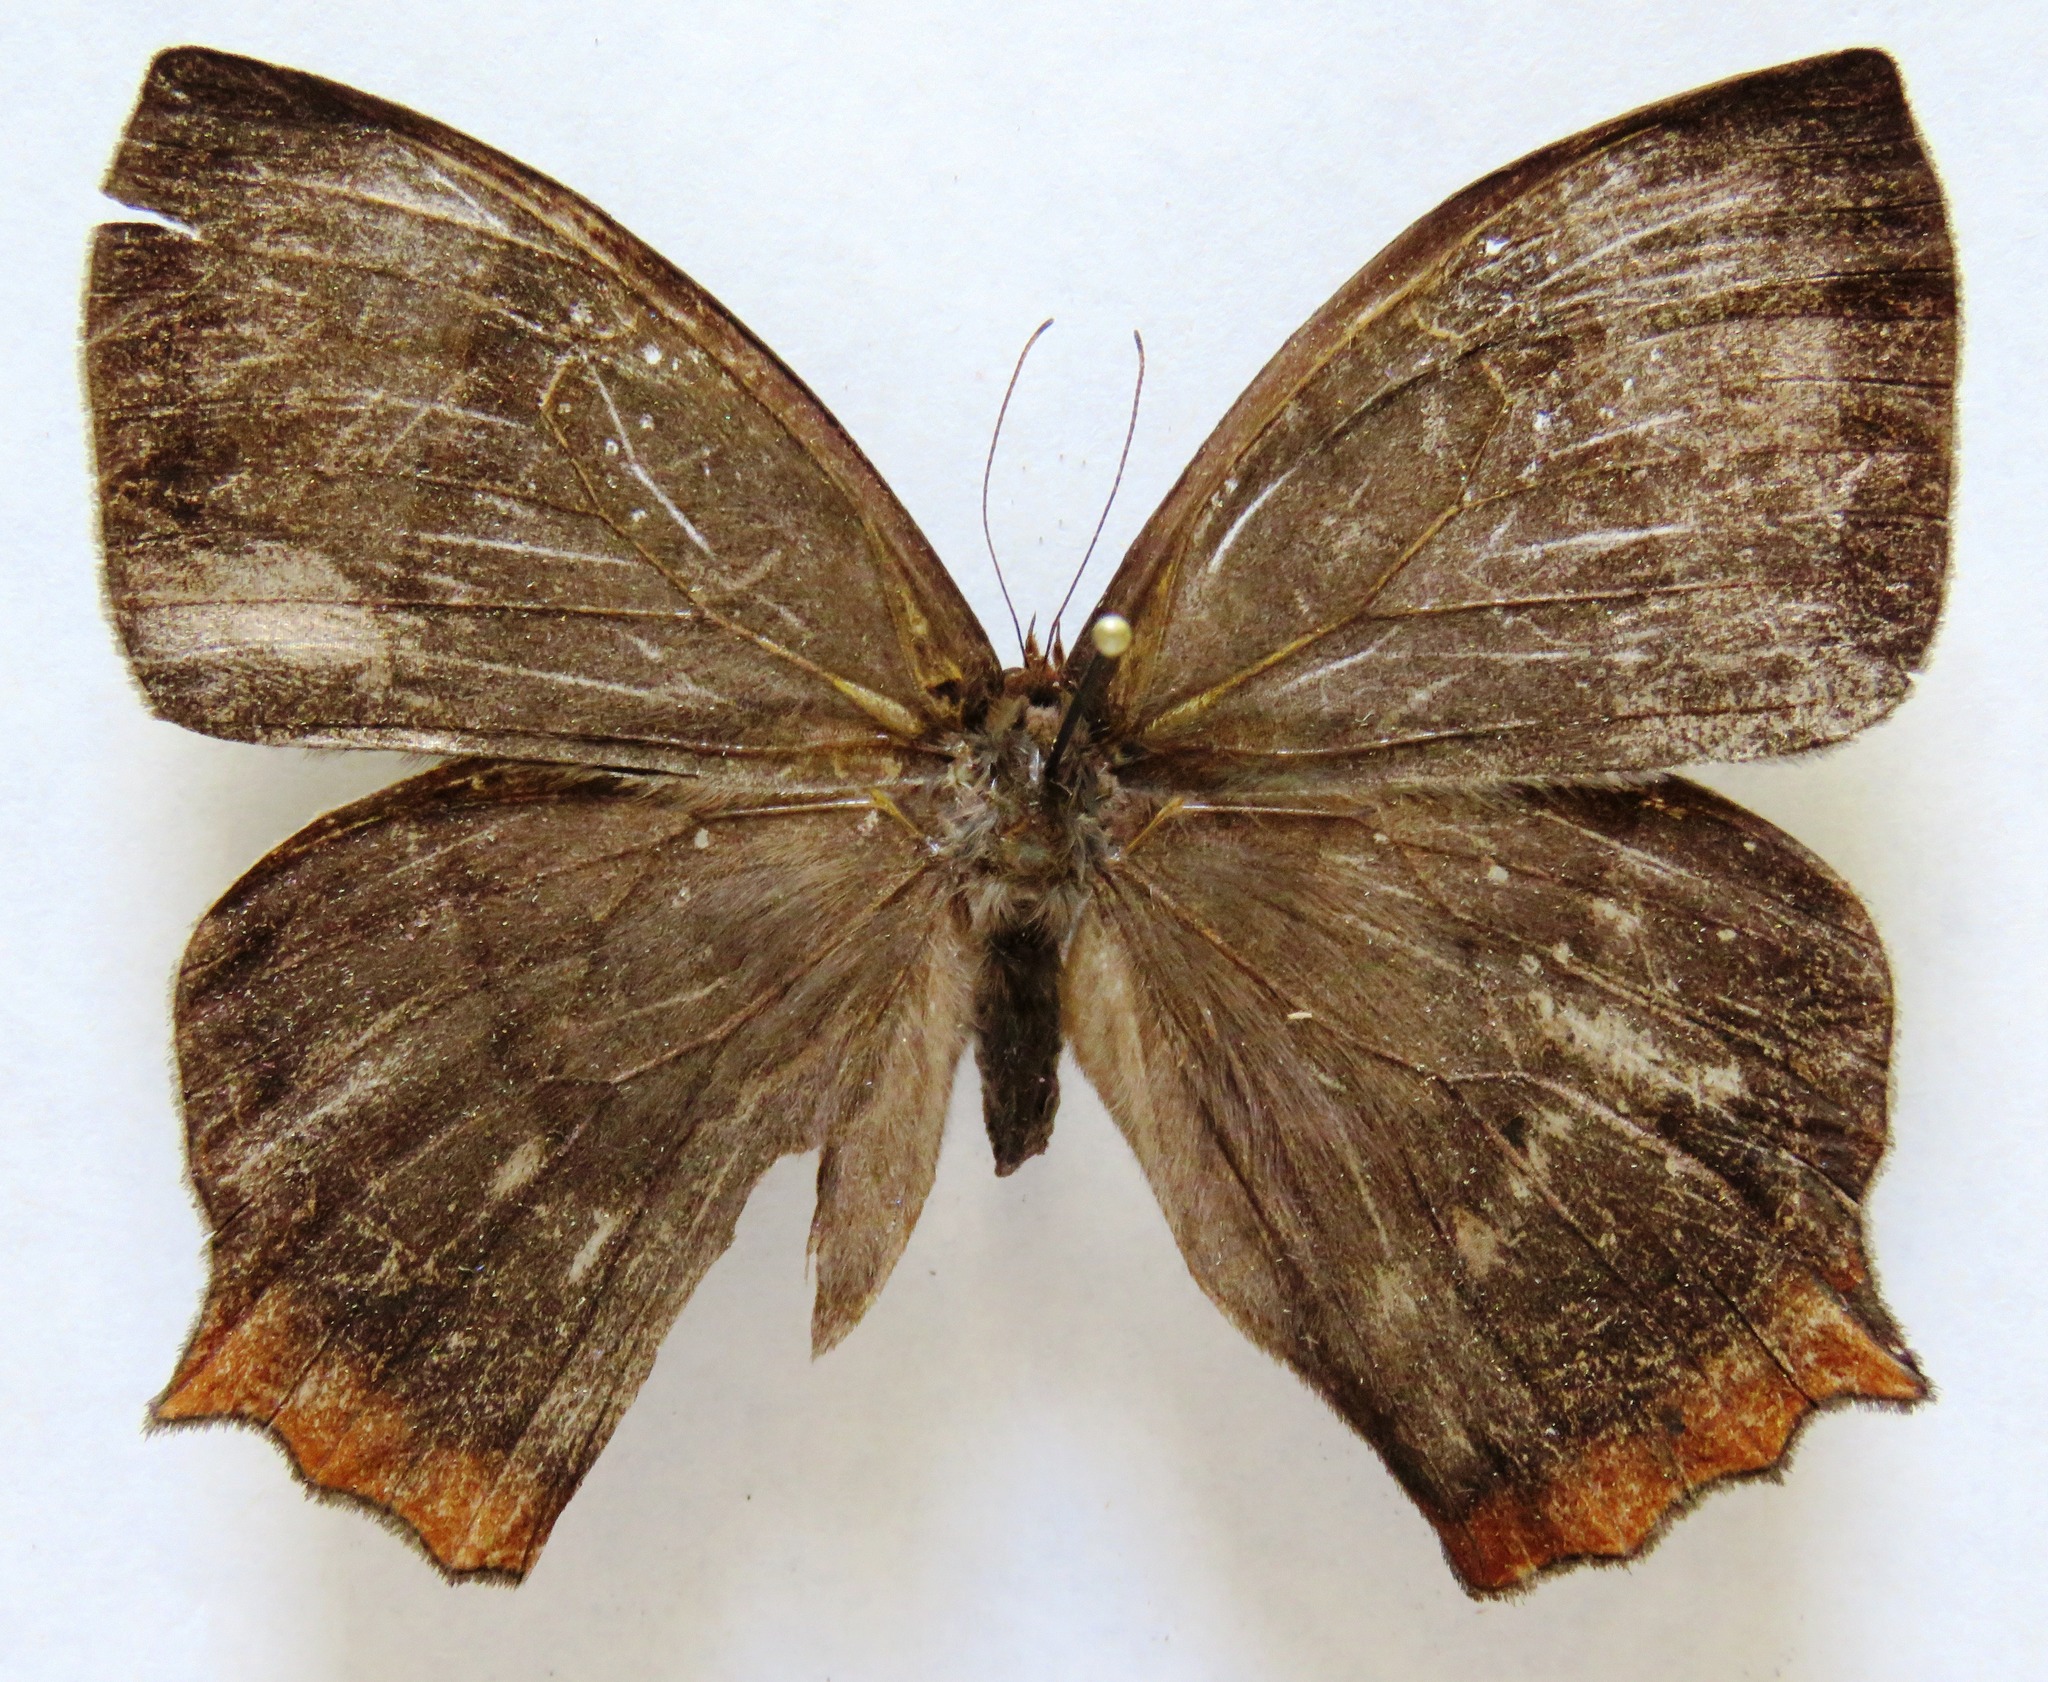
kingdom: Animalia
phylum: Arthropoda
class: Insecta
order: Lepidoptera
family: Nymphalidae
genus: Taygetis
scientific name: Taygetis virgilia
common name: Stub-tailed satyr
